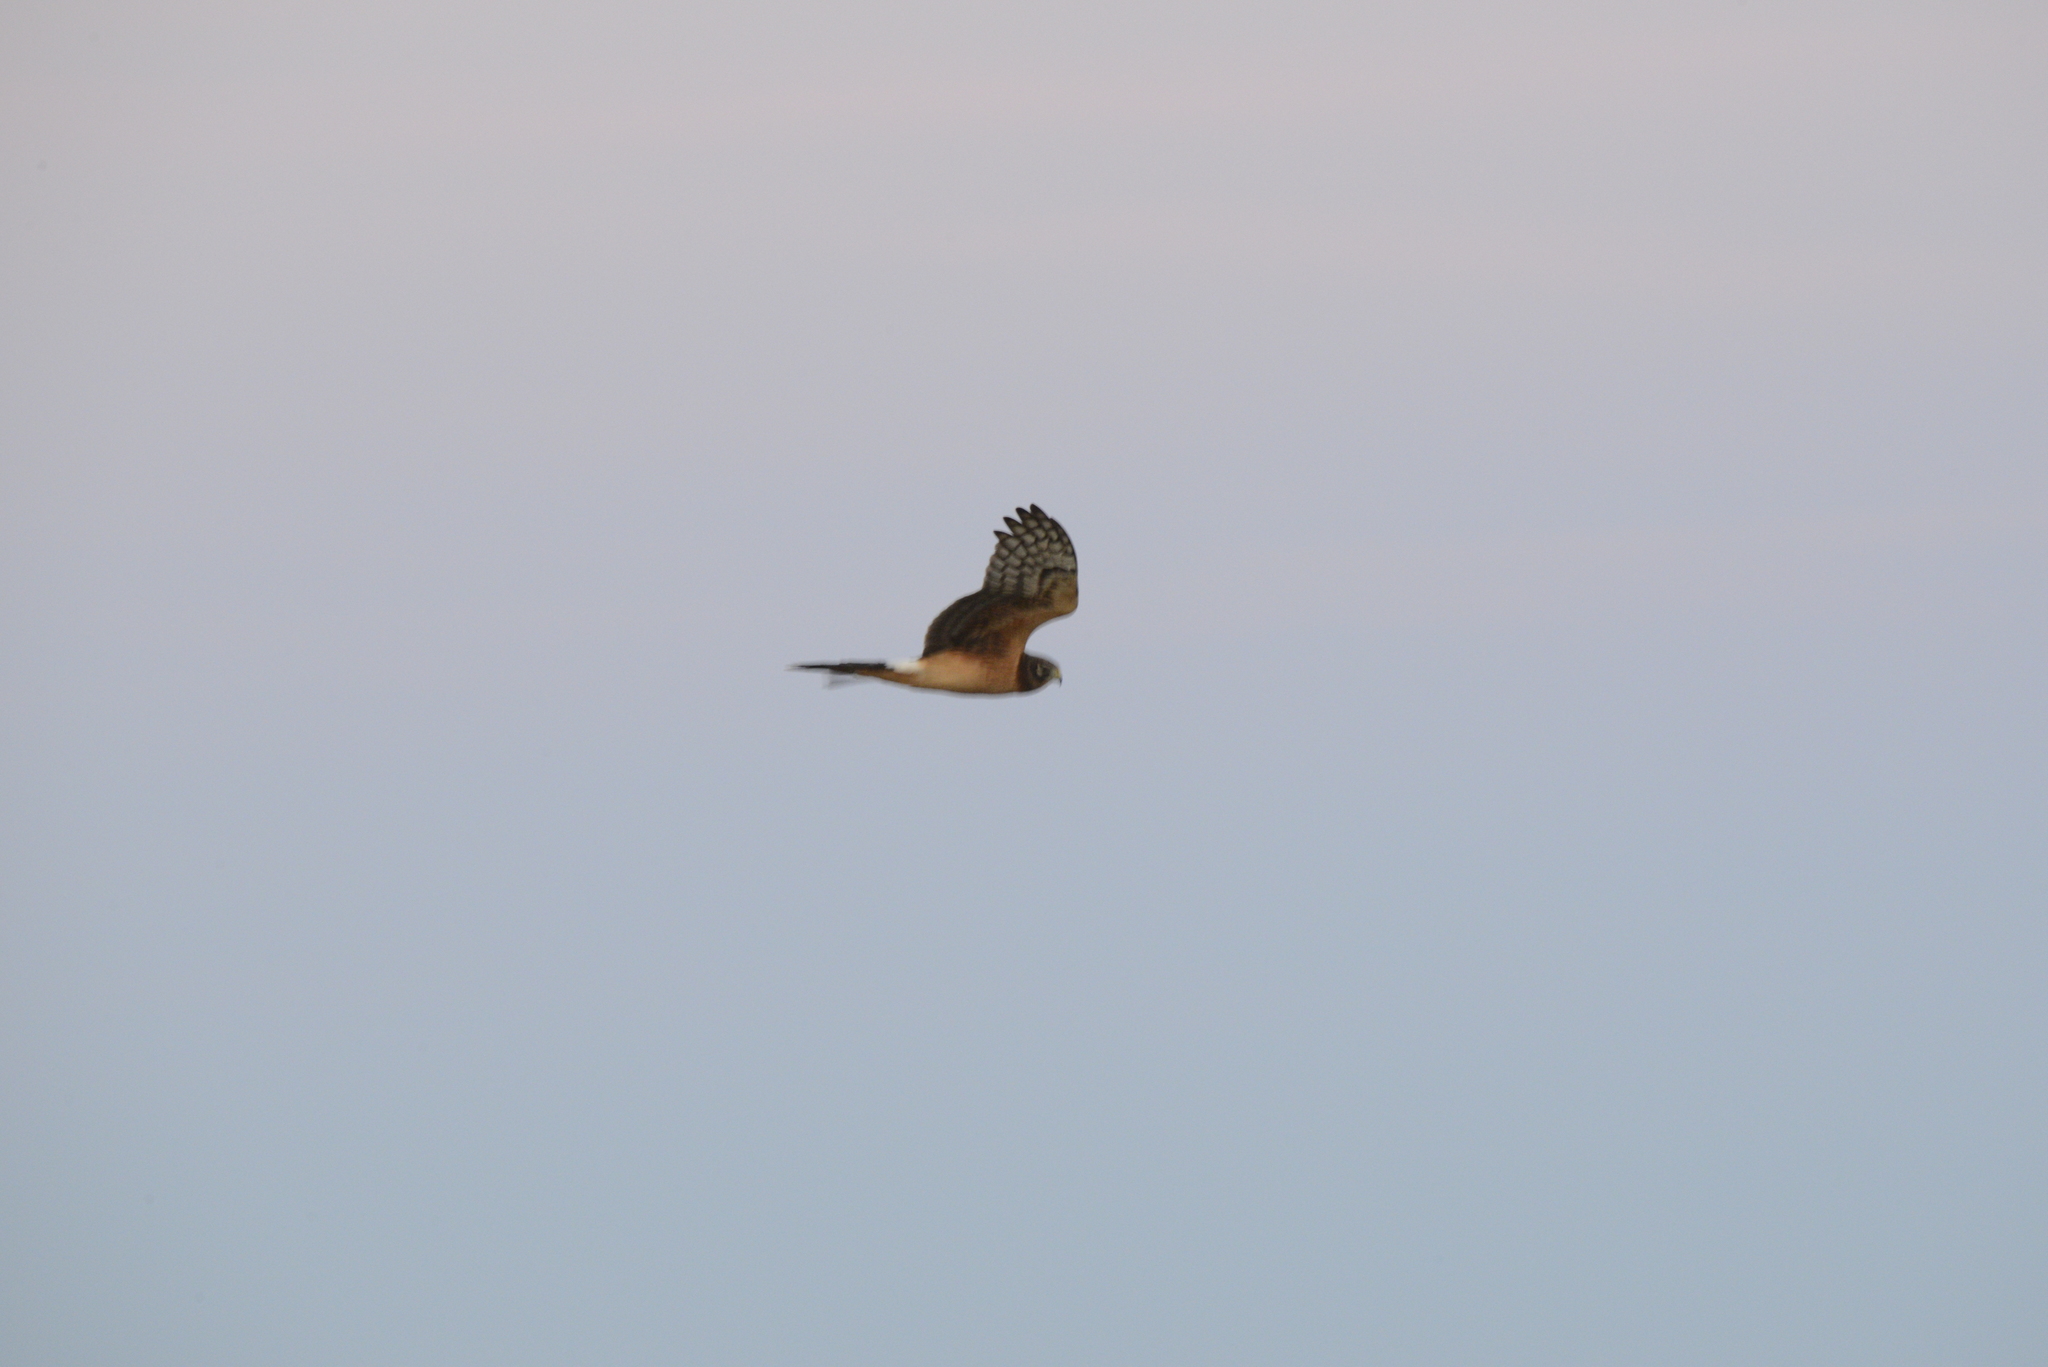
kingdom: Animalia
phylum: Chordata
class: Aves
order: Accipitriformes
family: Accipitridae
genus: Circus
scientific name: Circus cyaneus
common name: Hen harrier
